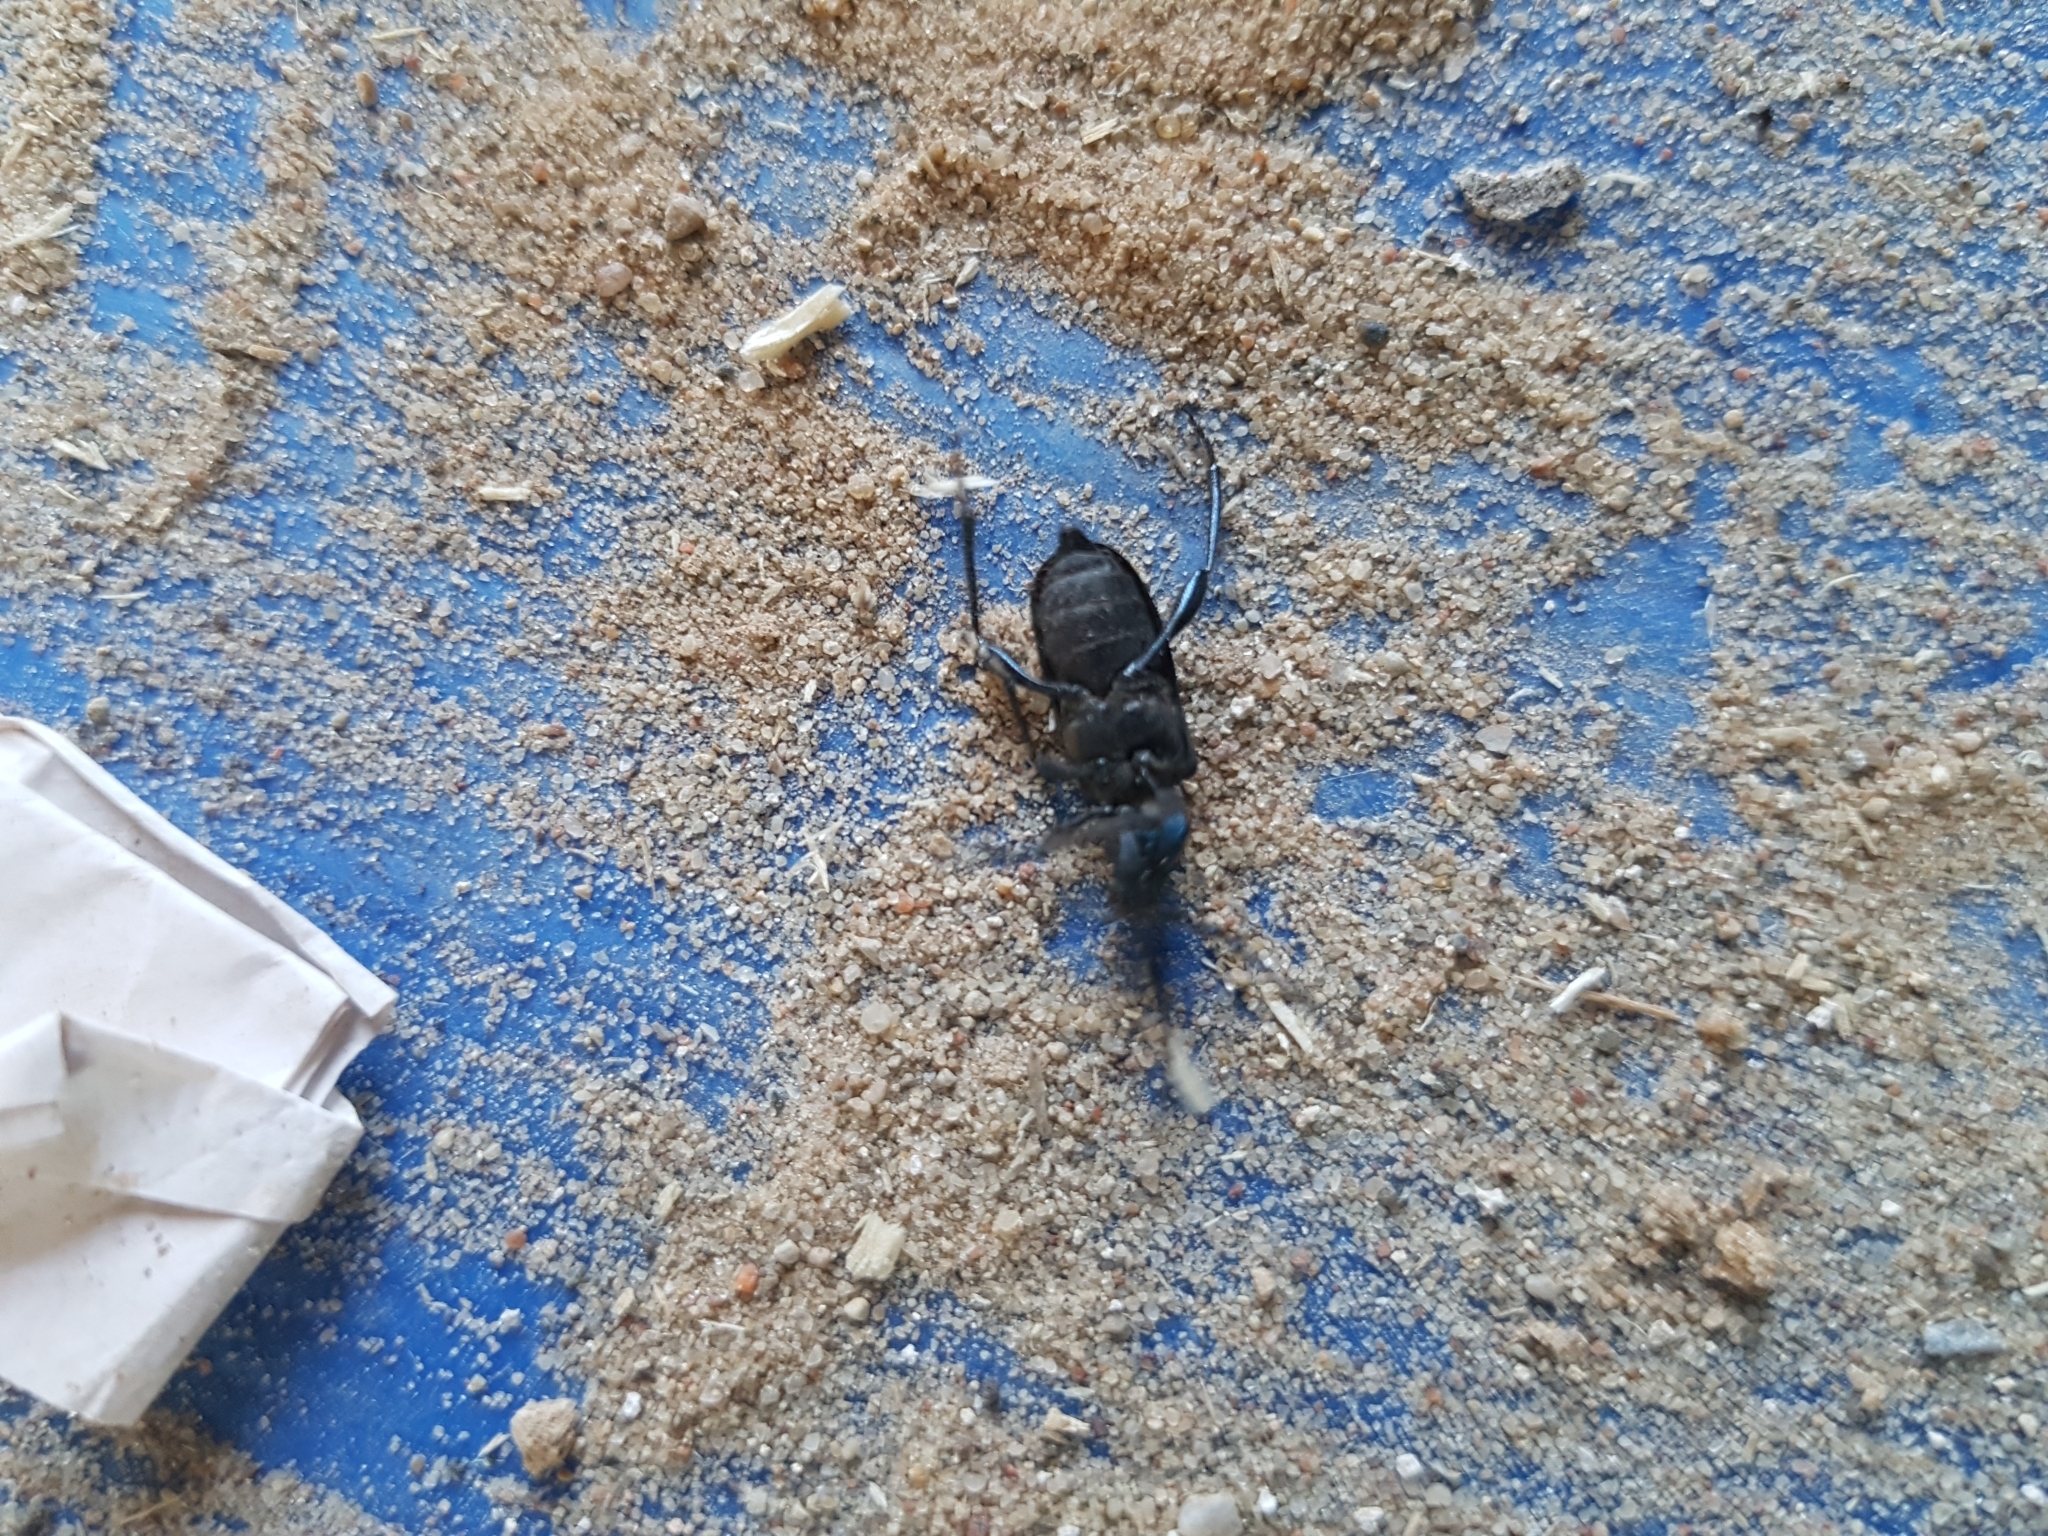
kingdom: Animalia
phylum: Arthropoda
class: Insecta
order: Coleoptera
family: Cerambycidae
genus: Callidium
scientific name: Callidium violaceum
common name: Violet tanbark beetle
